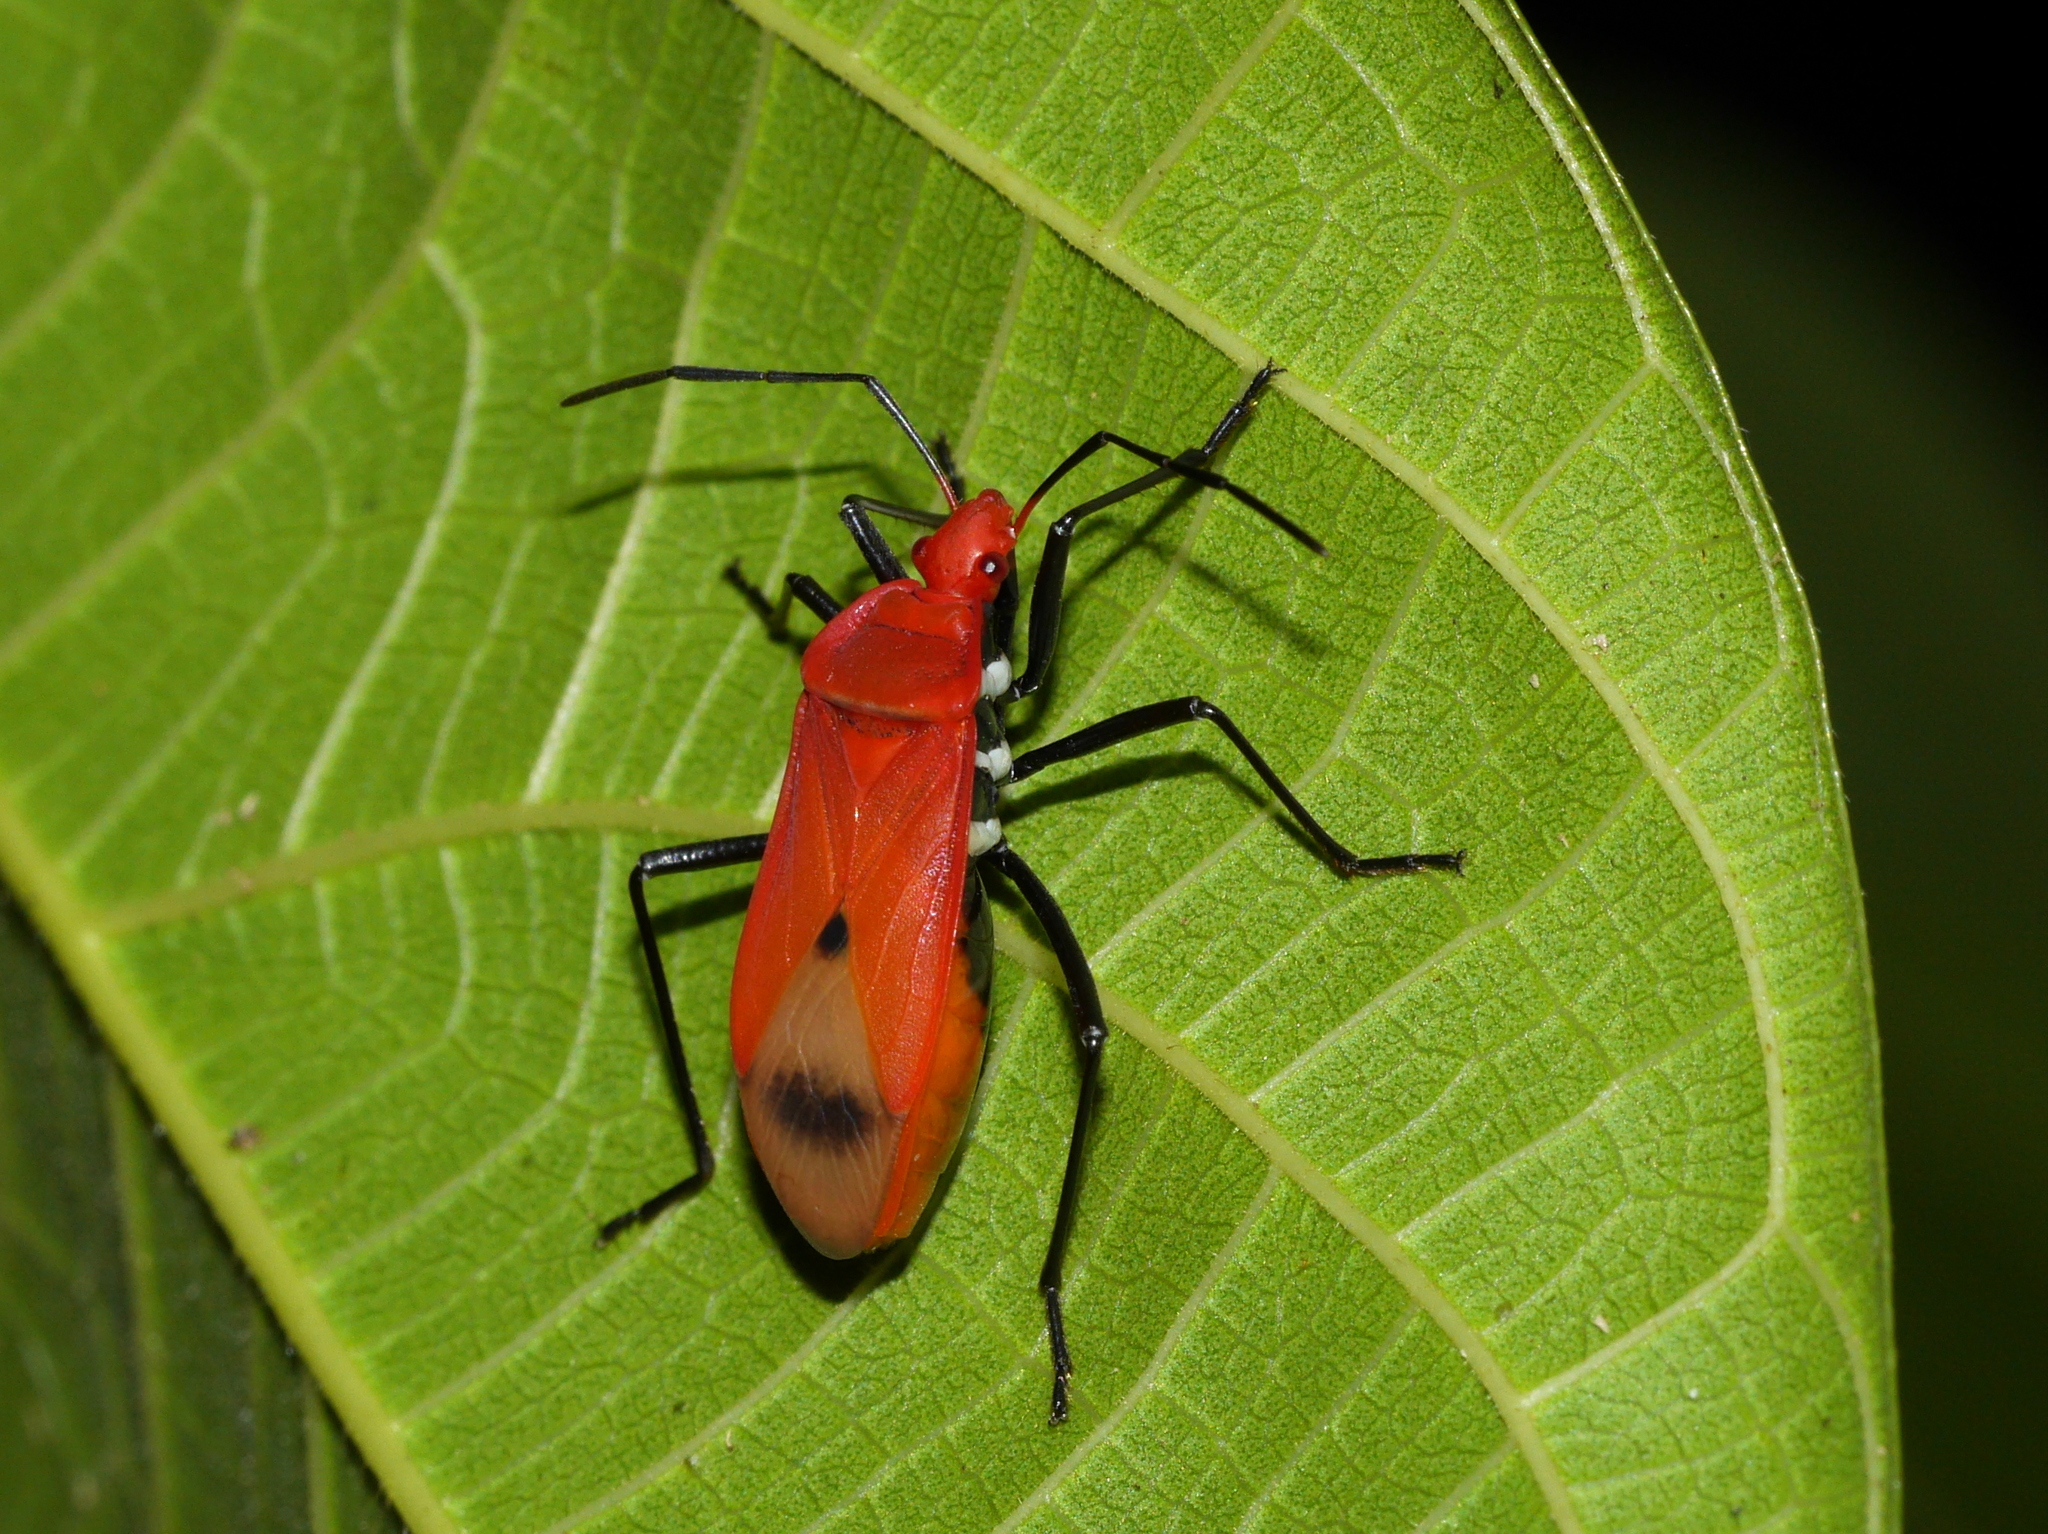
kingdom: Animalia
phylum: Arthropoda
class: Insecta
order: Hemiptera
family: Pyrrhocoridae
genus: Dindymus
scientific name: Dindymus rubiginosus
